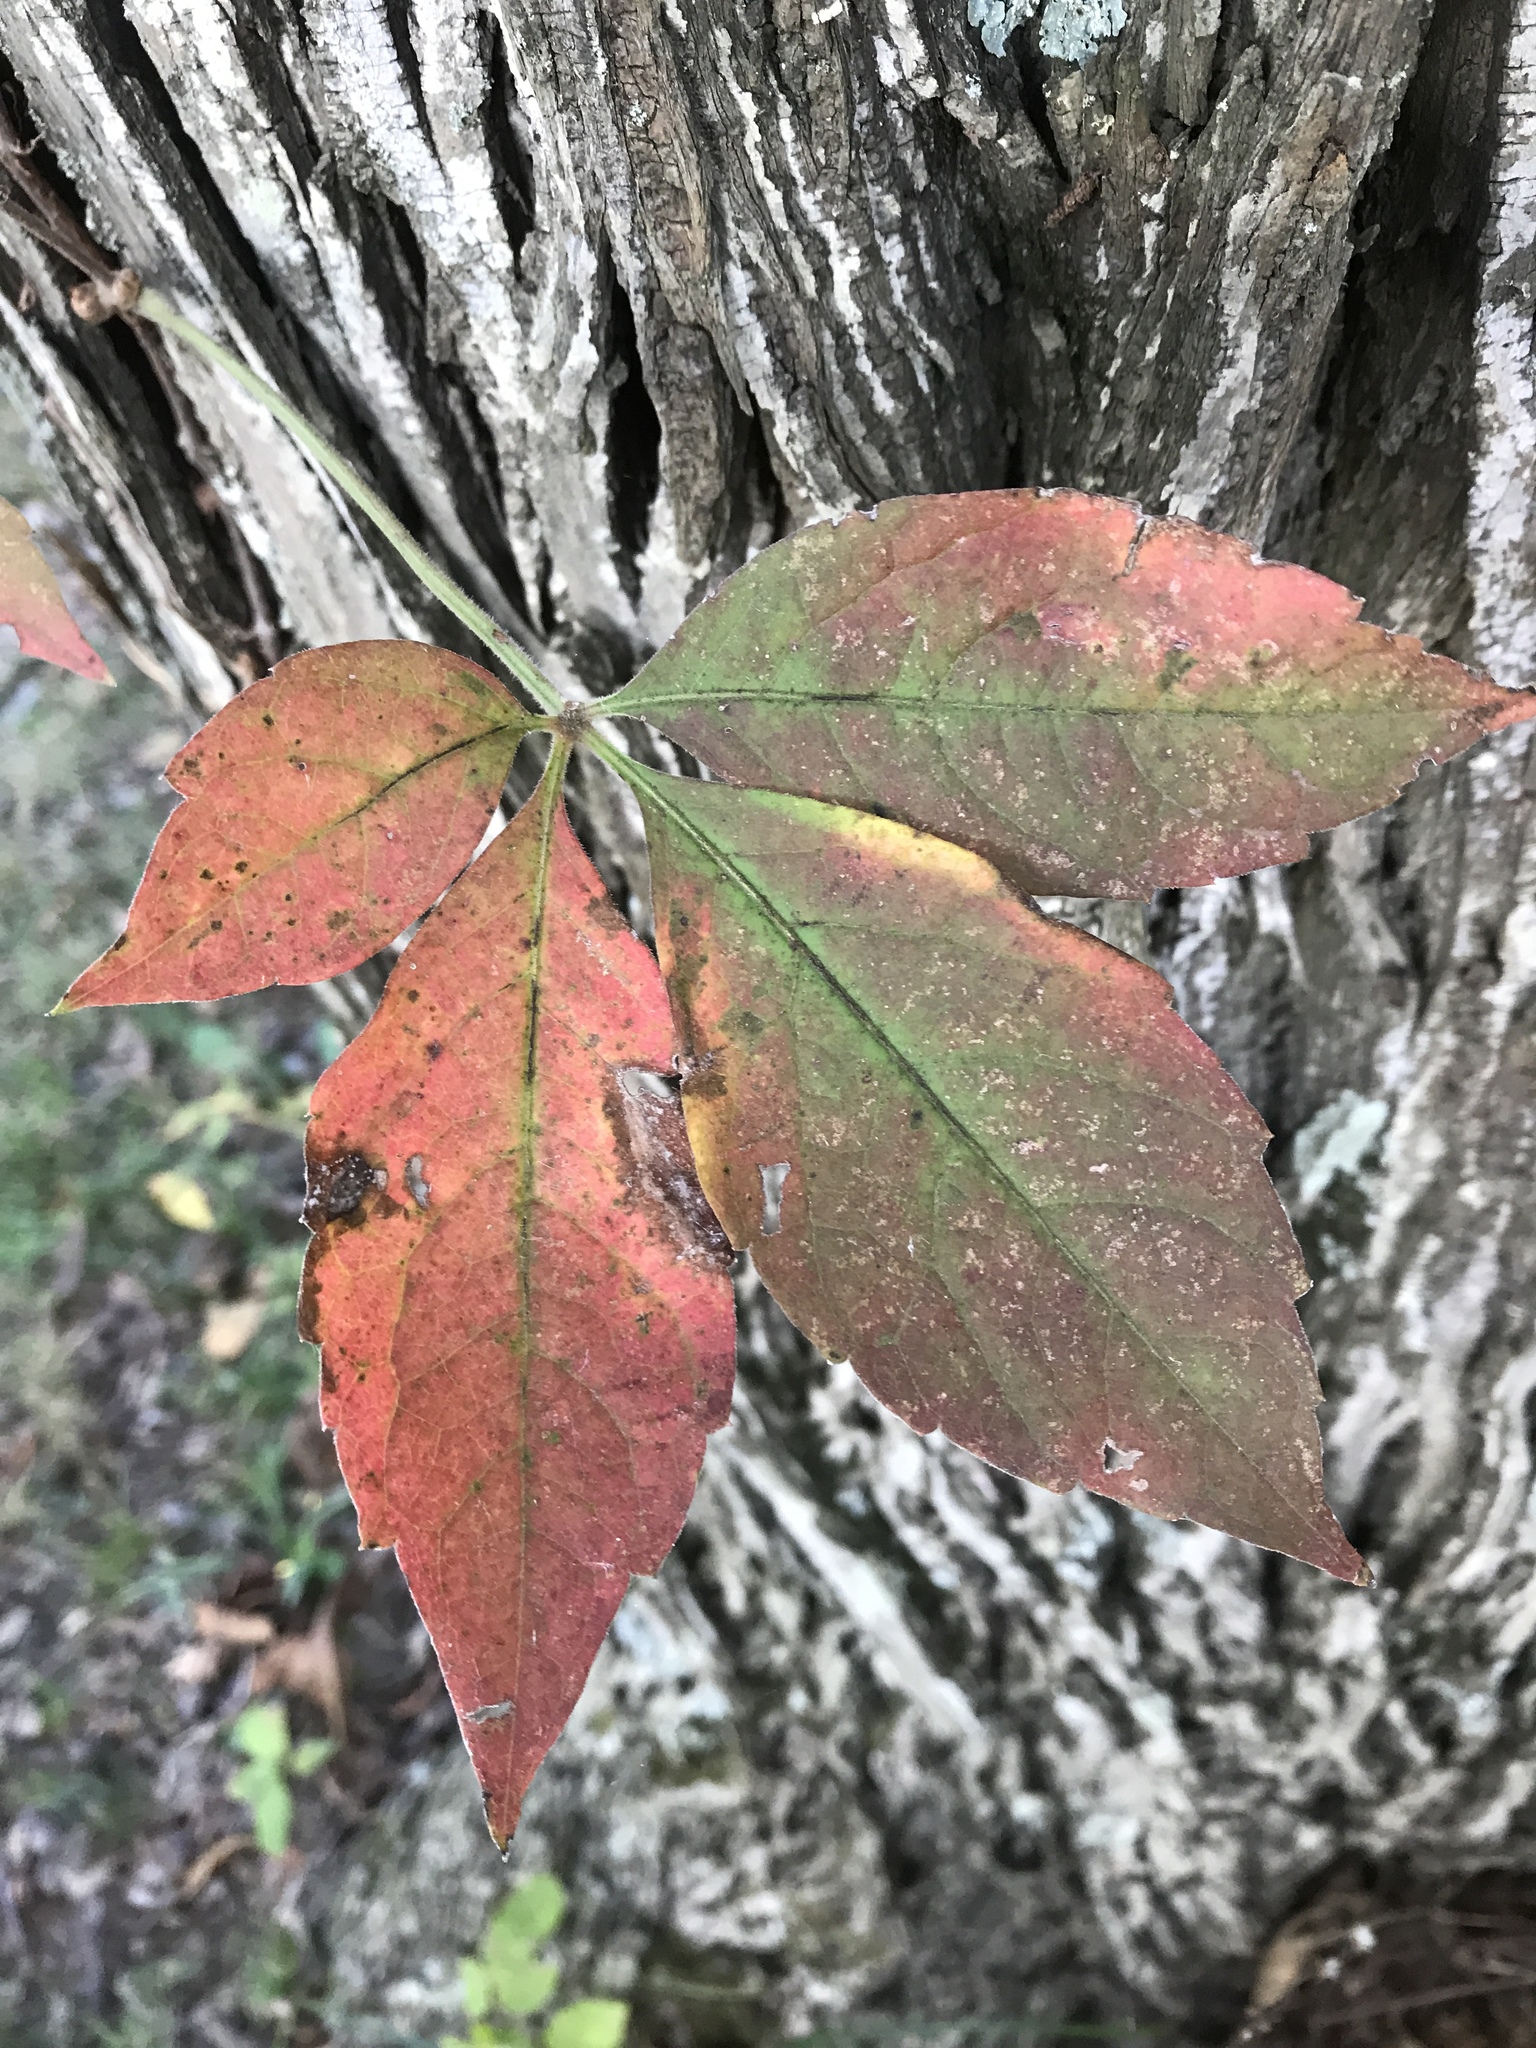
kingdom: Plantae
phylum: Tracheophyta
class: Magnoliopsida
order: Vitales
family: Vitaceae
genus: Parthenocissus
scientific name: Parthenocissus quinquefolia
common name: Virginia-creeper
